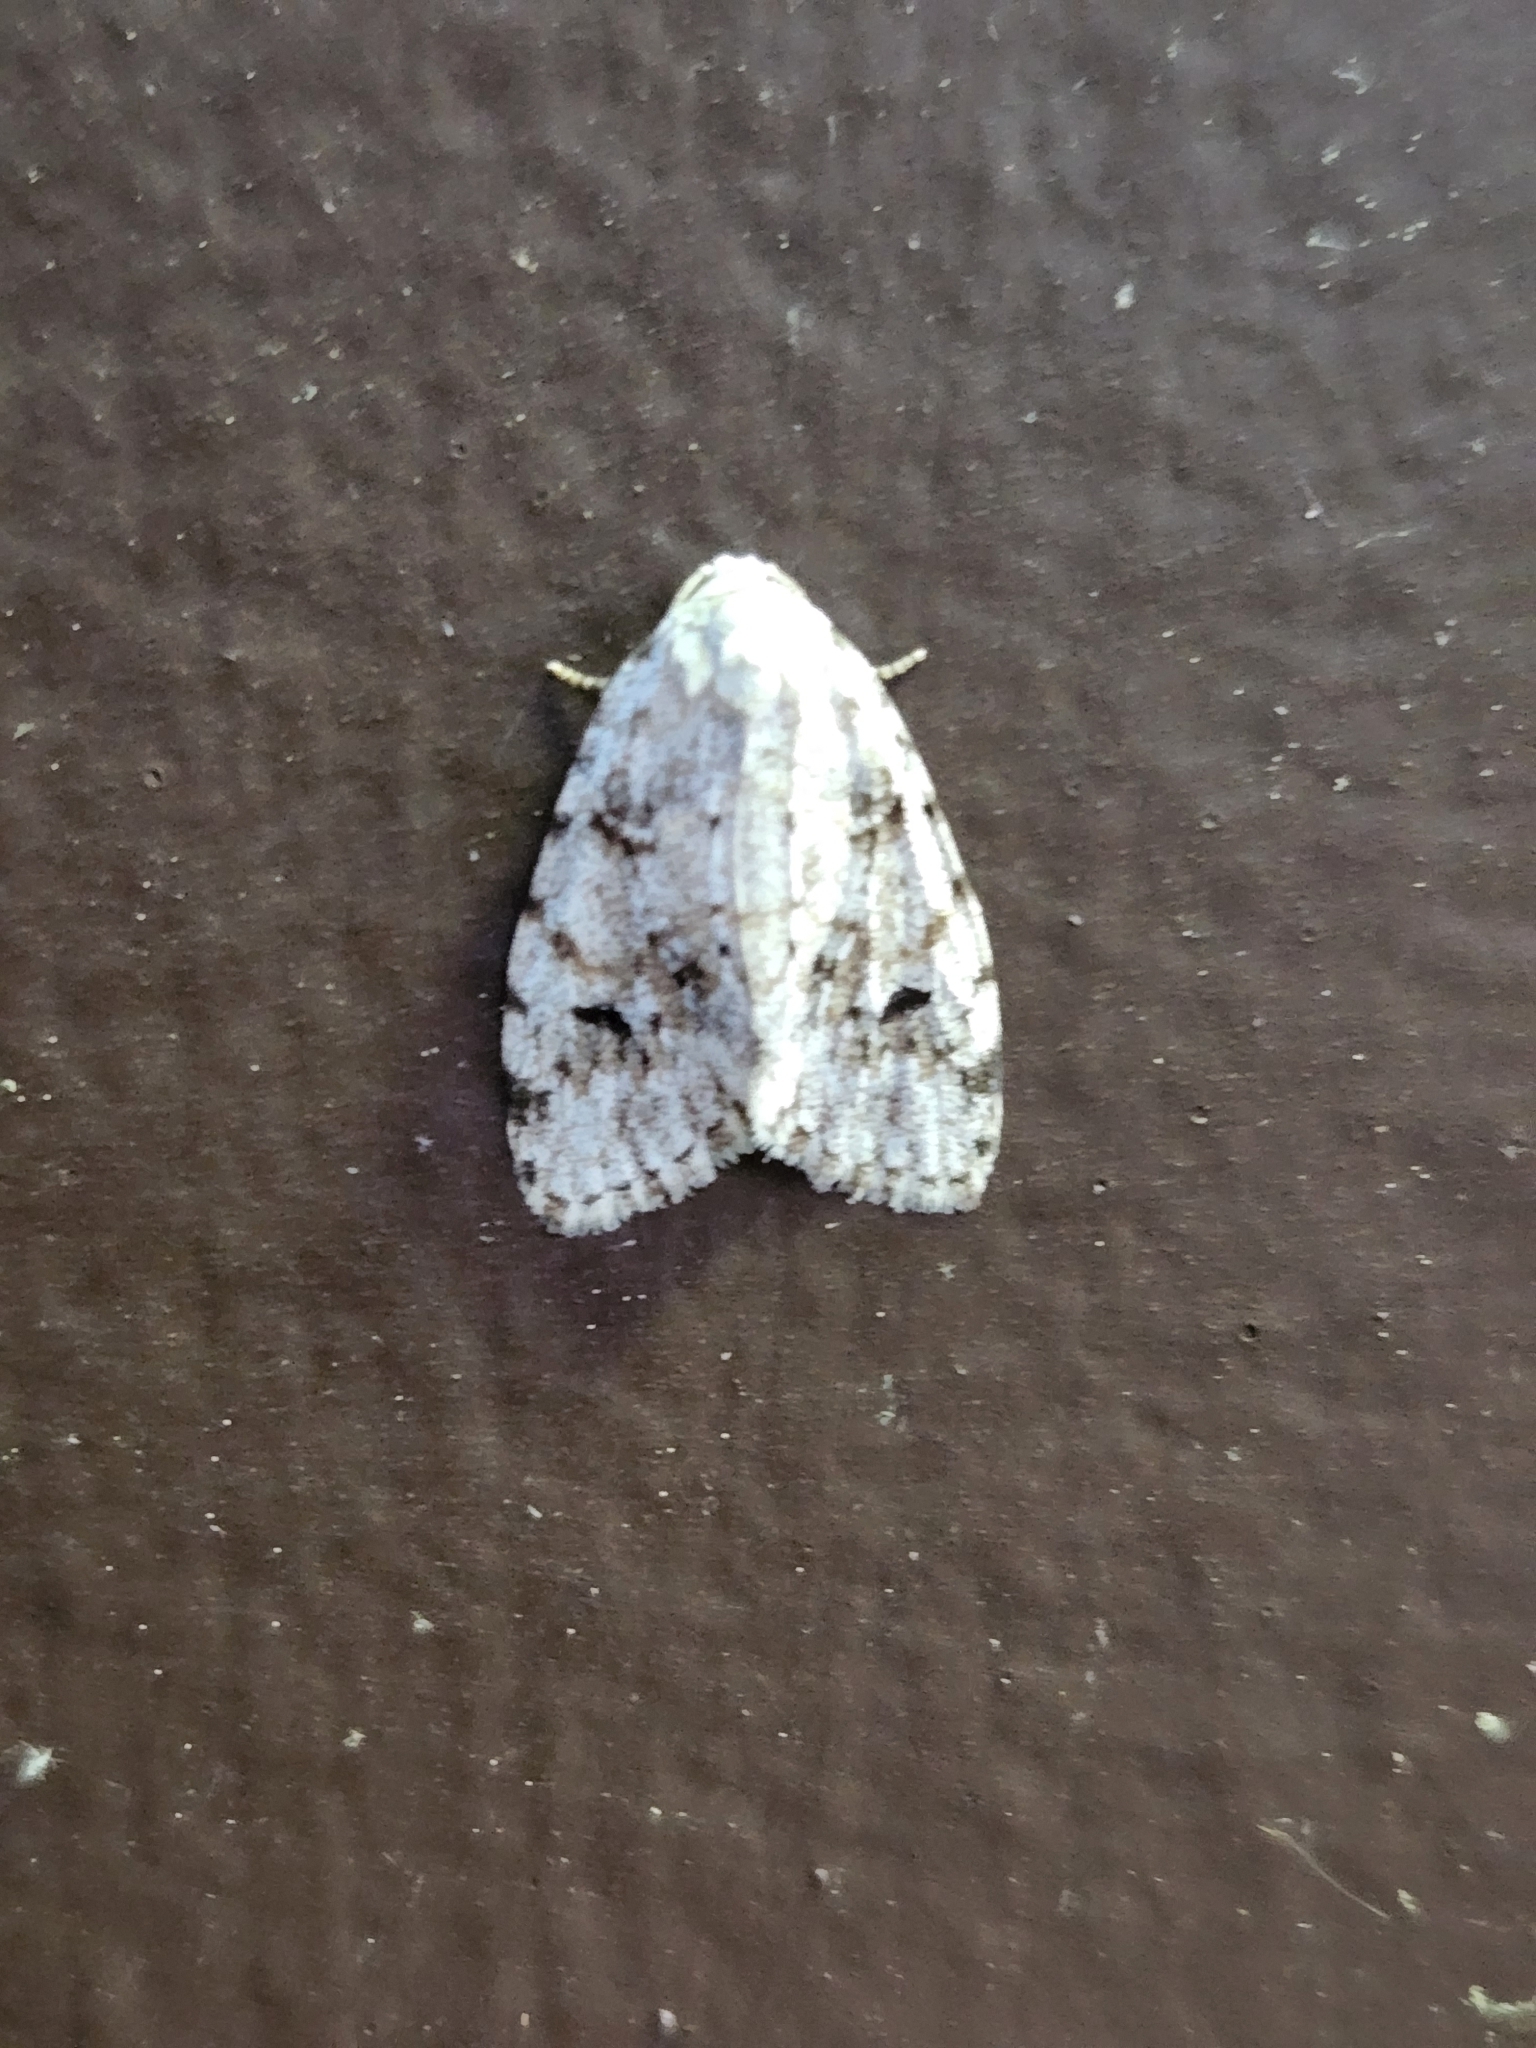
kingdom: Animalia
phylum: Arthropoda
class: Insecta
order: Lepidoptera
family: Erebidae
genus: Clemensia
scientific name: Clemensia albata
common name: Little white lichen moth
